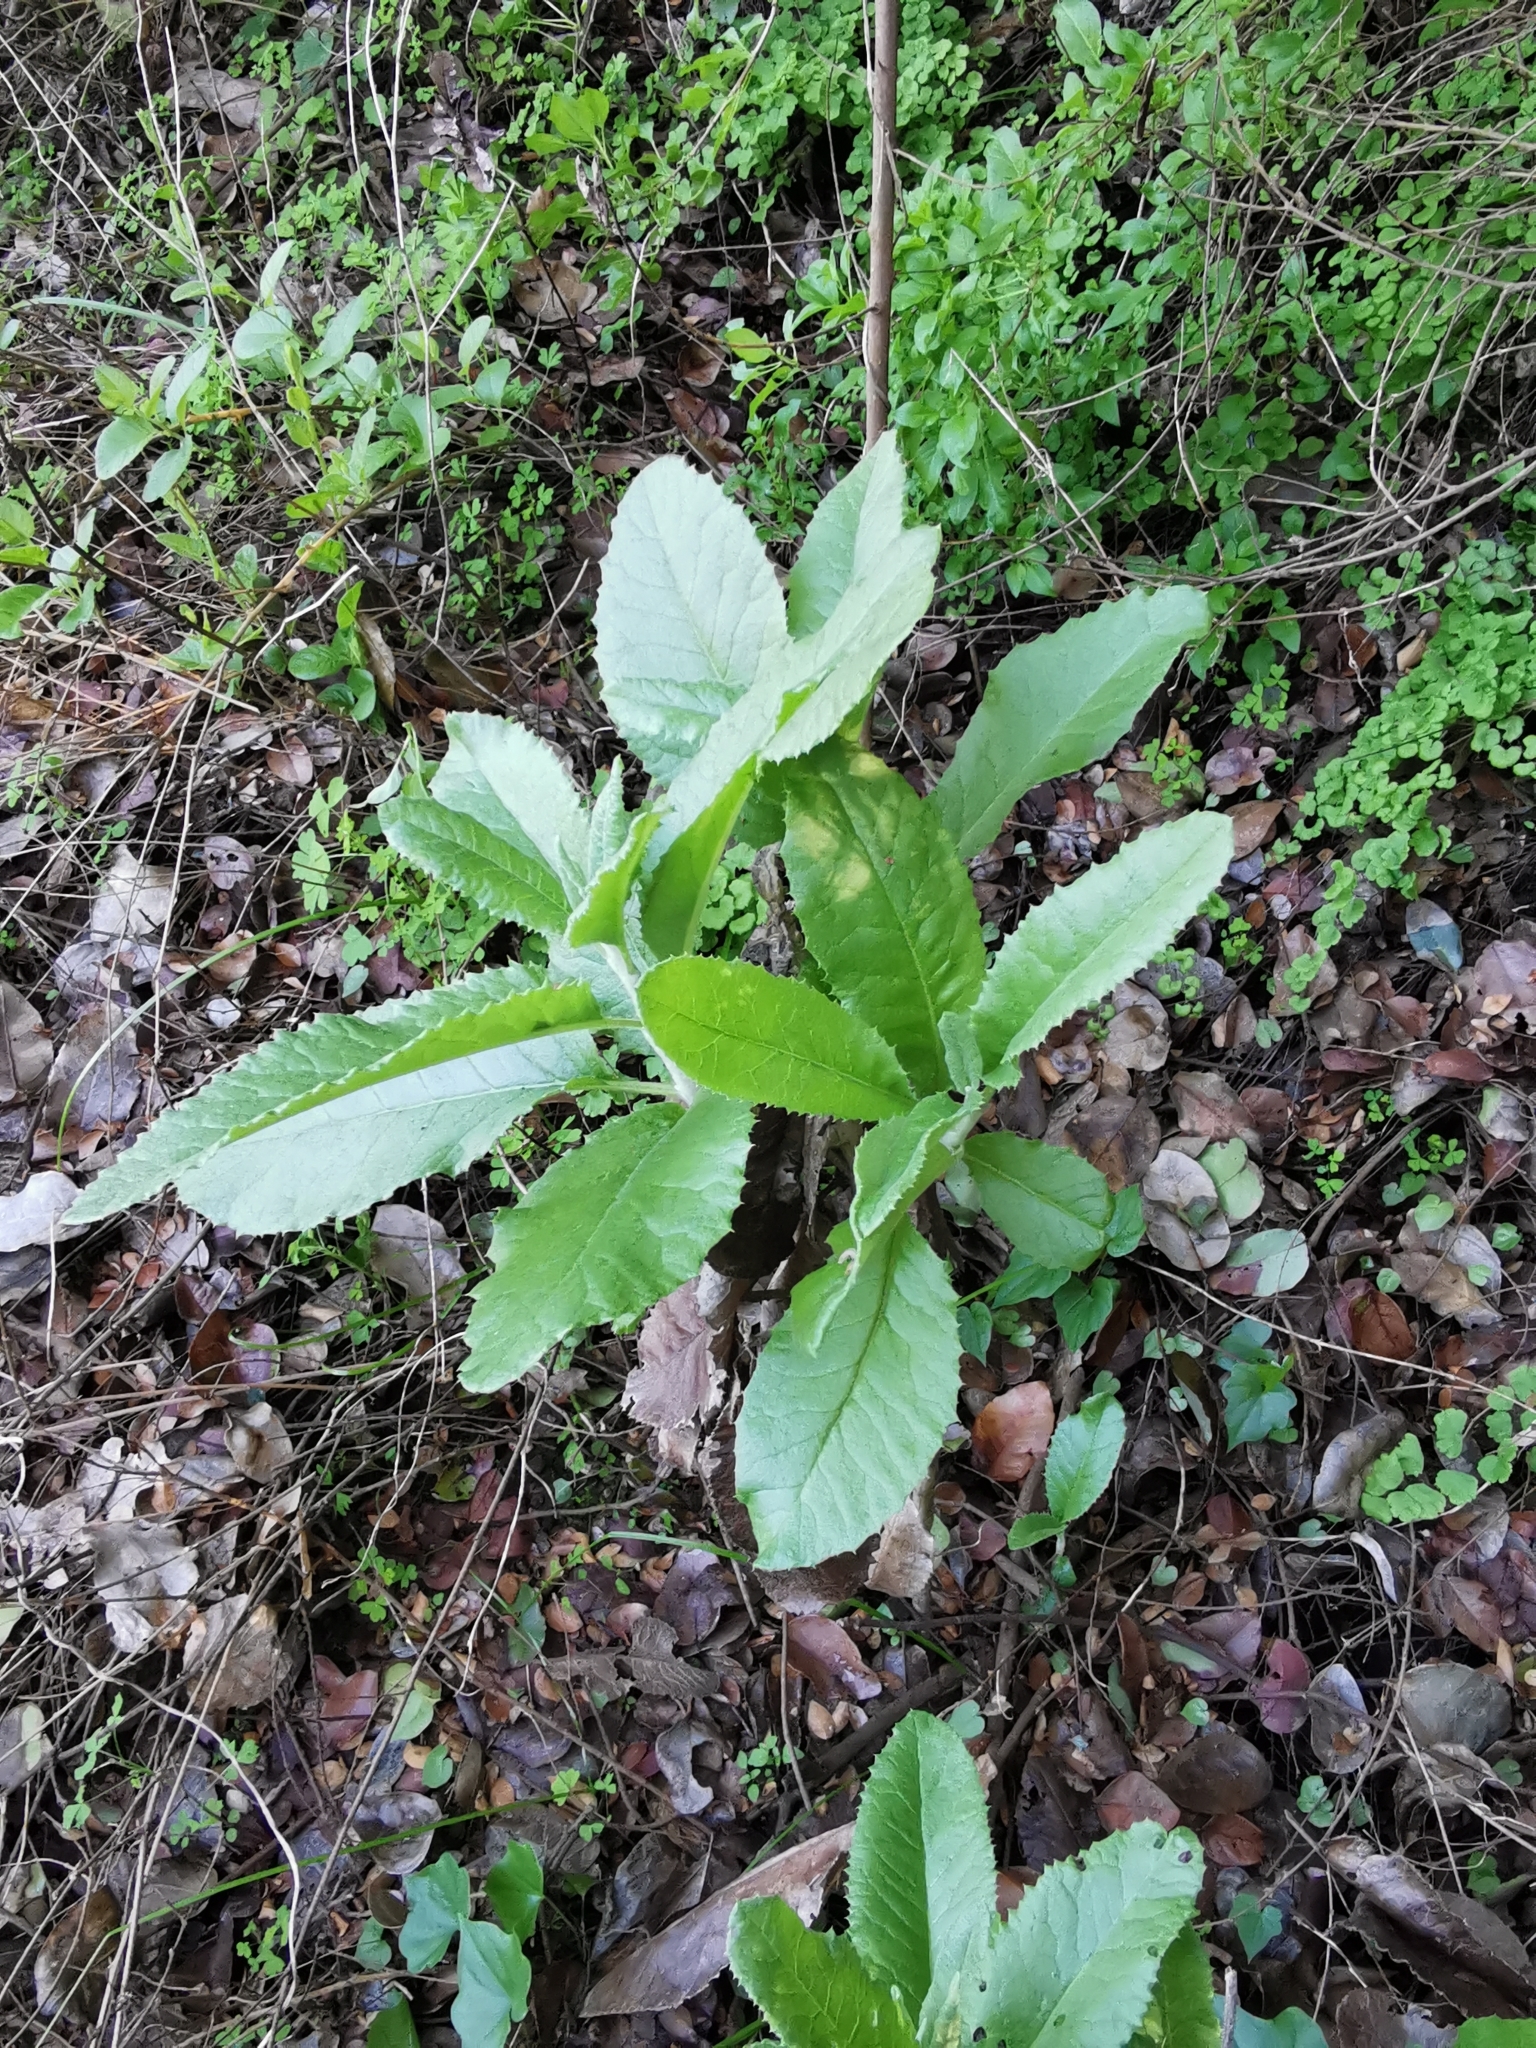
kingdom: Plantae
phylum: Tracheophyta
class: Magnoliopsida
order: Asterales
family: Asteraceae
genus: Acrisione
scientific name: Acrisione denticulata
